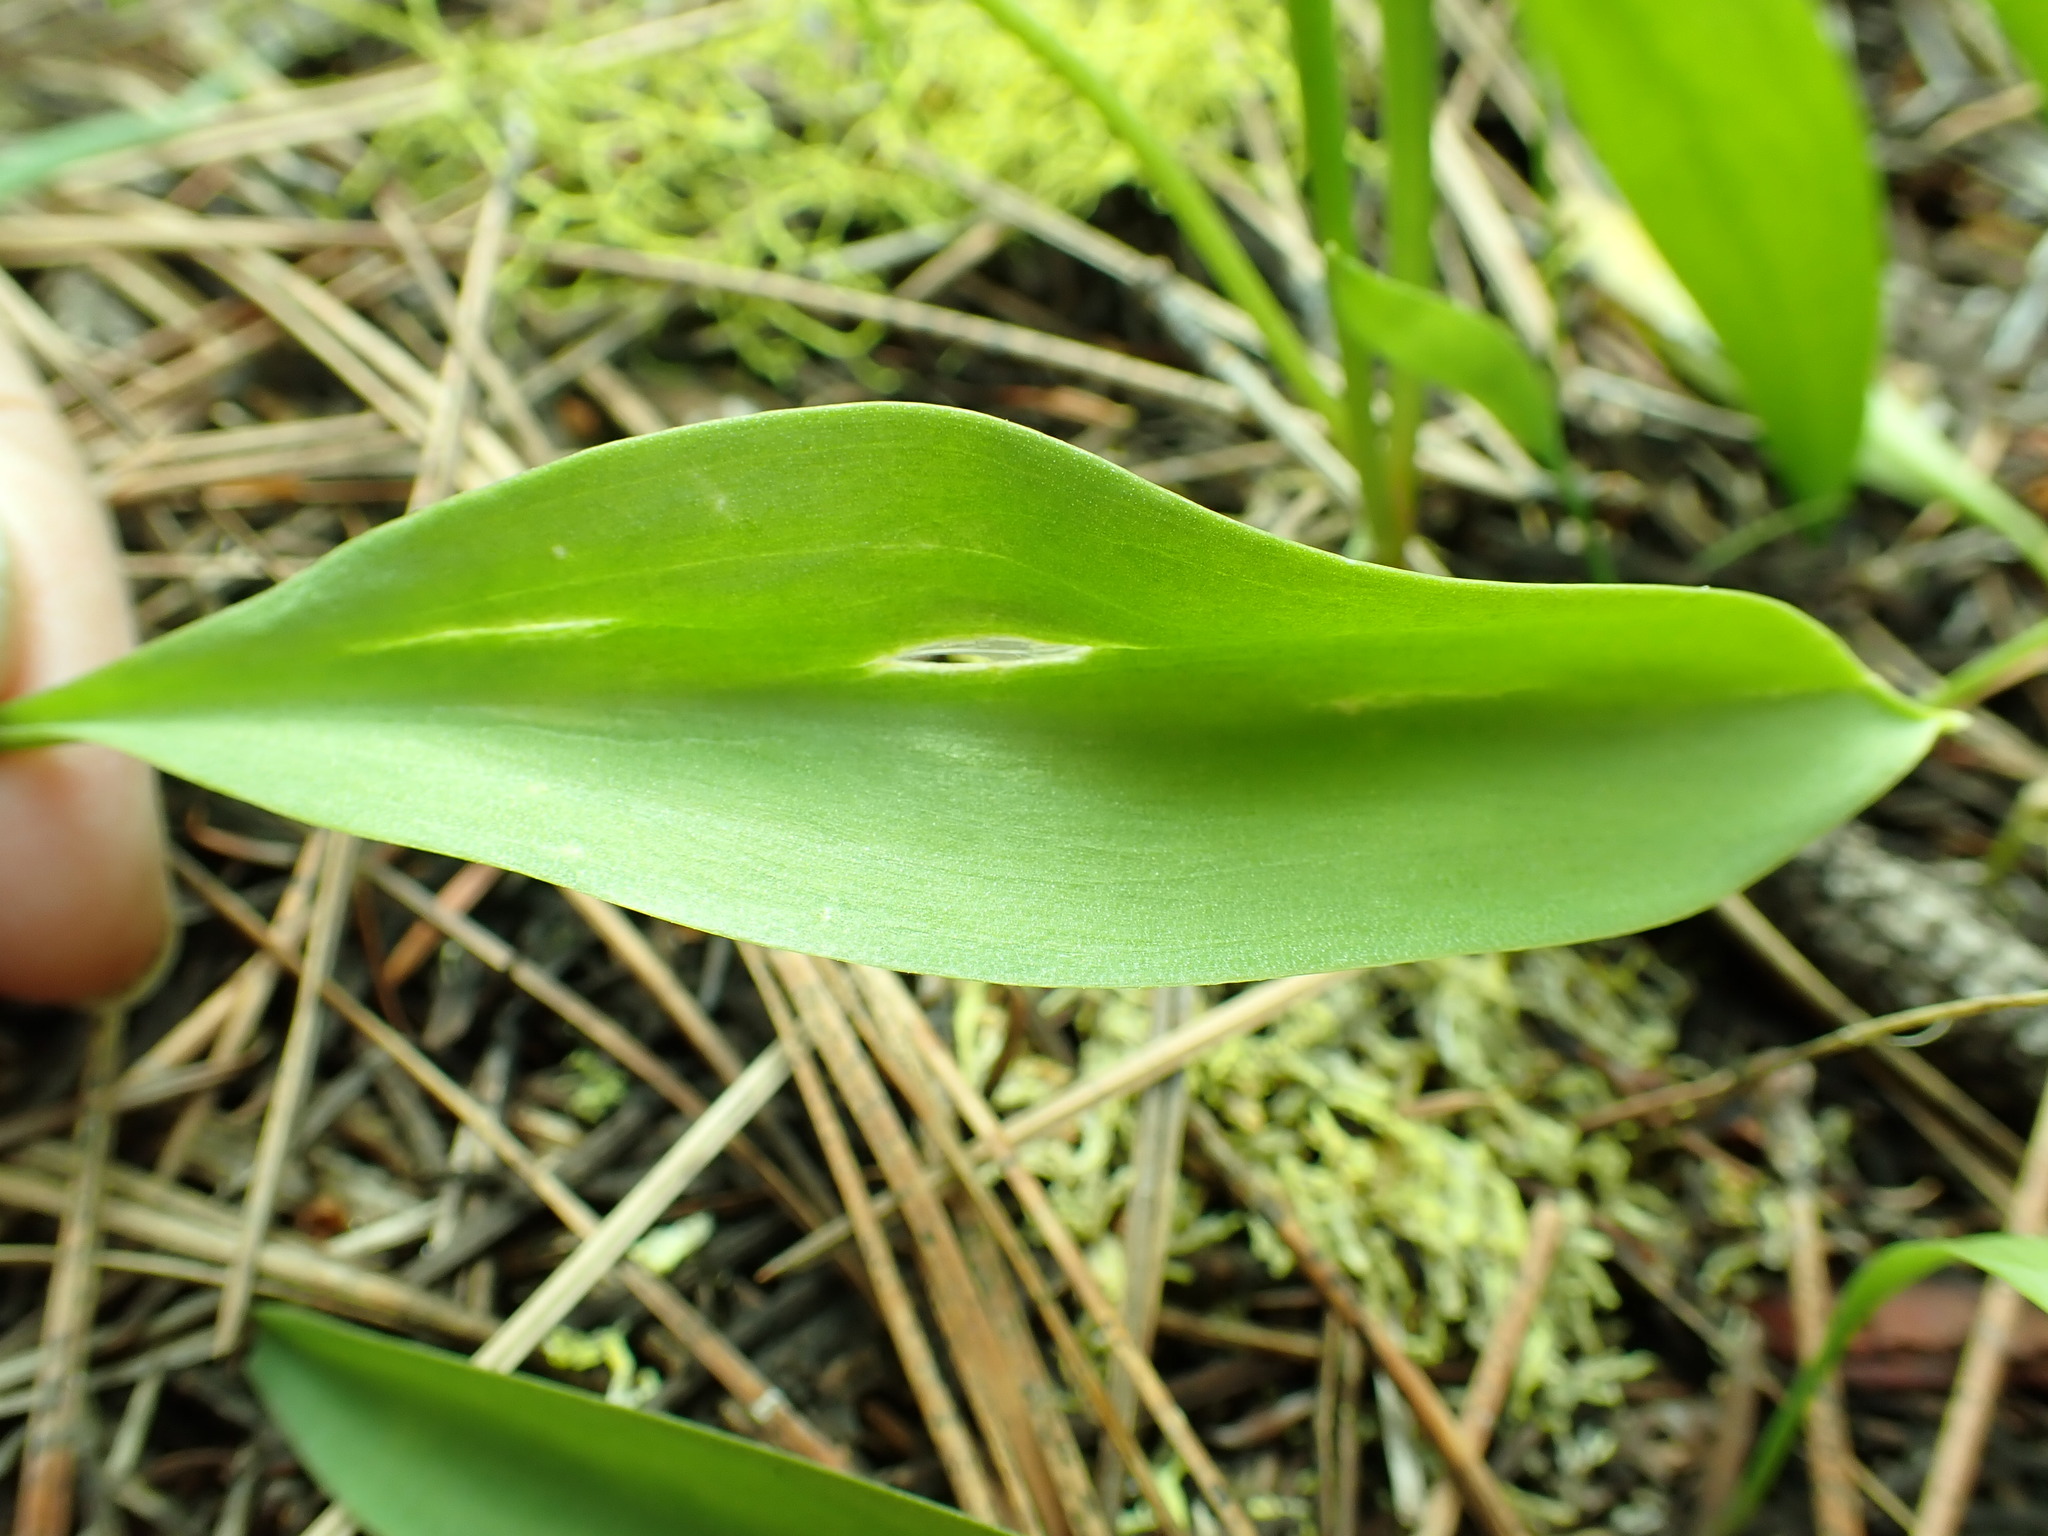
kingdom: Plantae
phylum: Tracheophyta
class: Liliopsida
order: Liliales
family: Liliaceae
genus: Erythronium
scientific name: Erythronium grandiflorum
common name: Avalanche-lily
